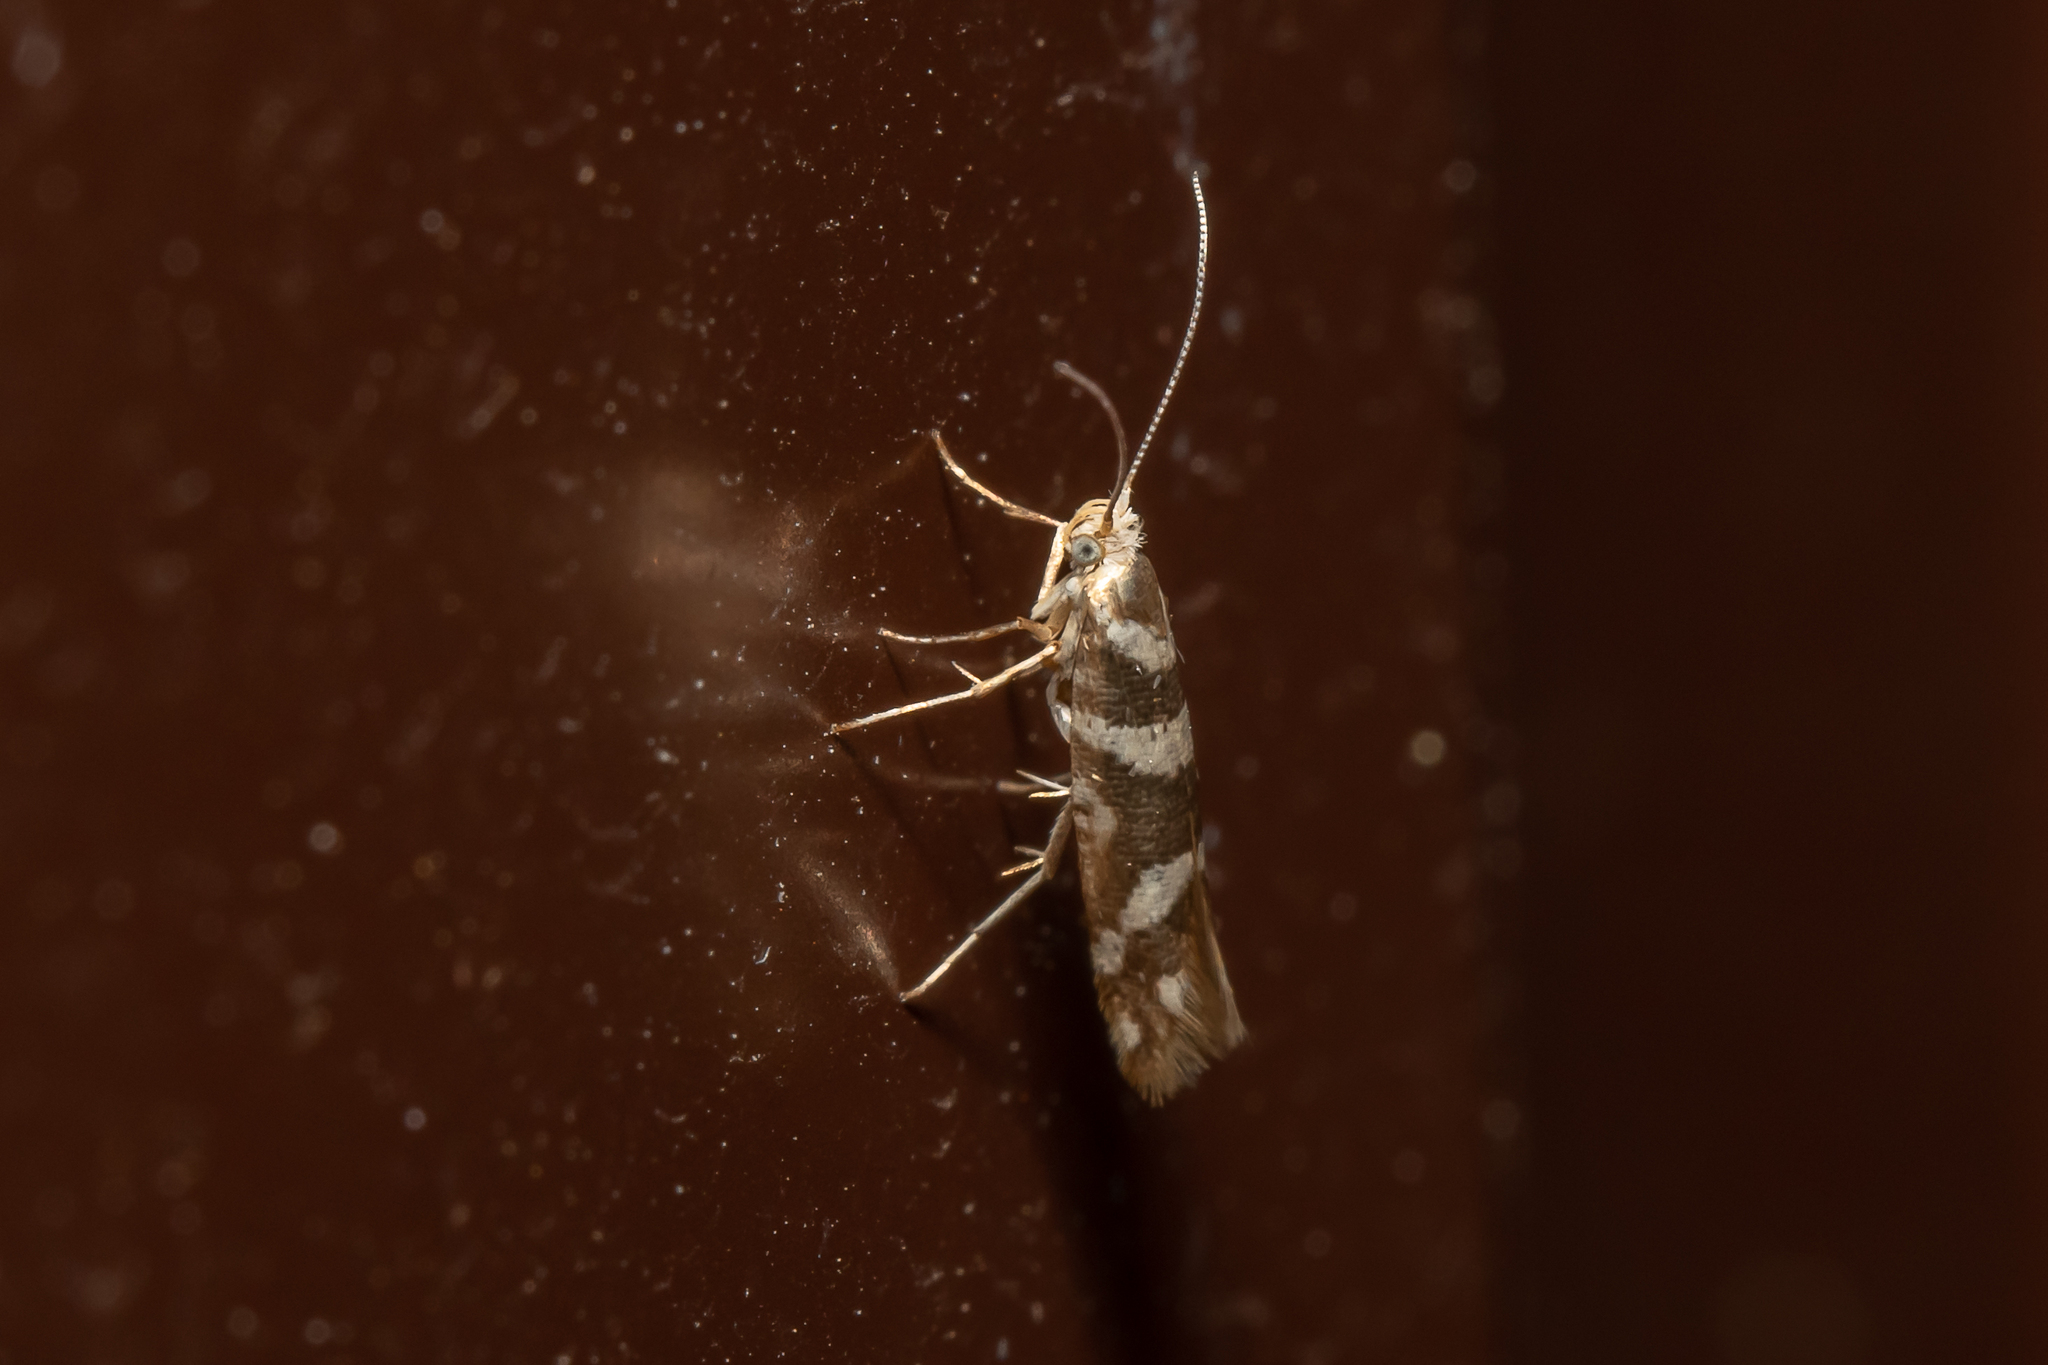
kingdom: Animalia
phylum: Arthropoda
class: Insecta
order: Lepidoptera
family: Argyresthiidae
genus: Argyresthia
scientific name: Argyresthia goedartella
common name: Golden argent
